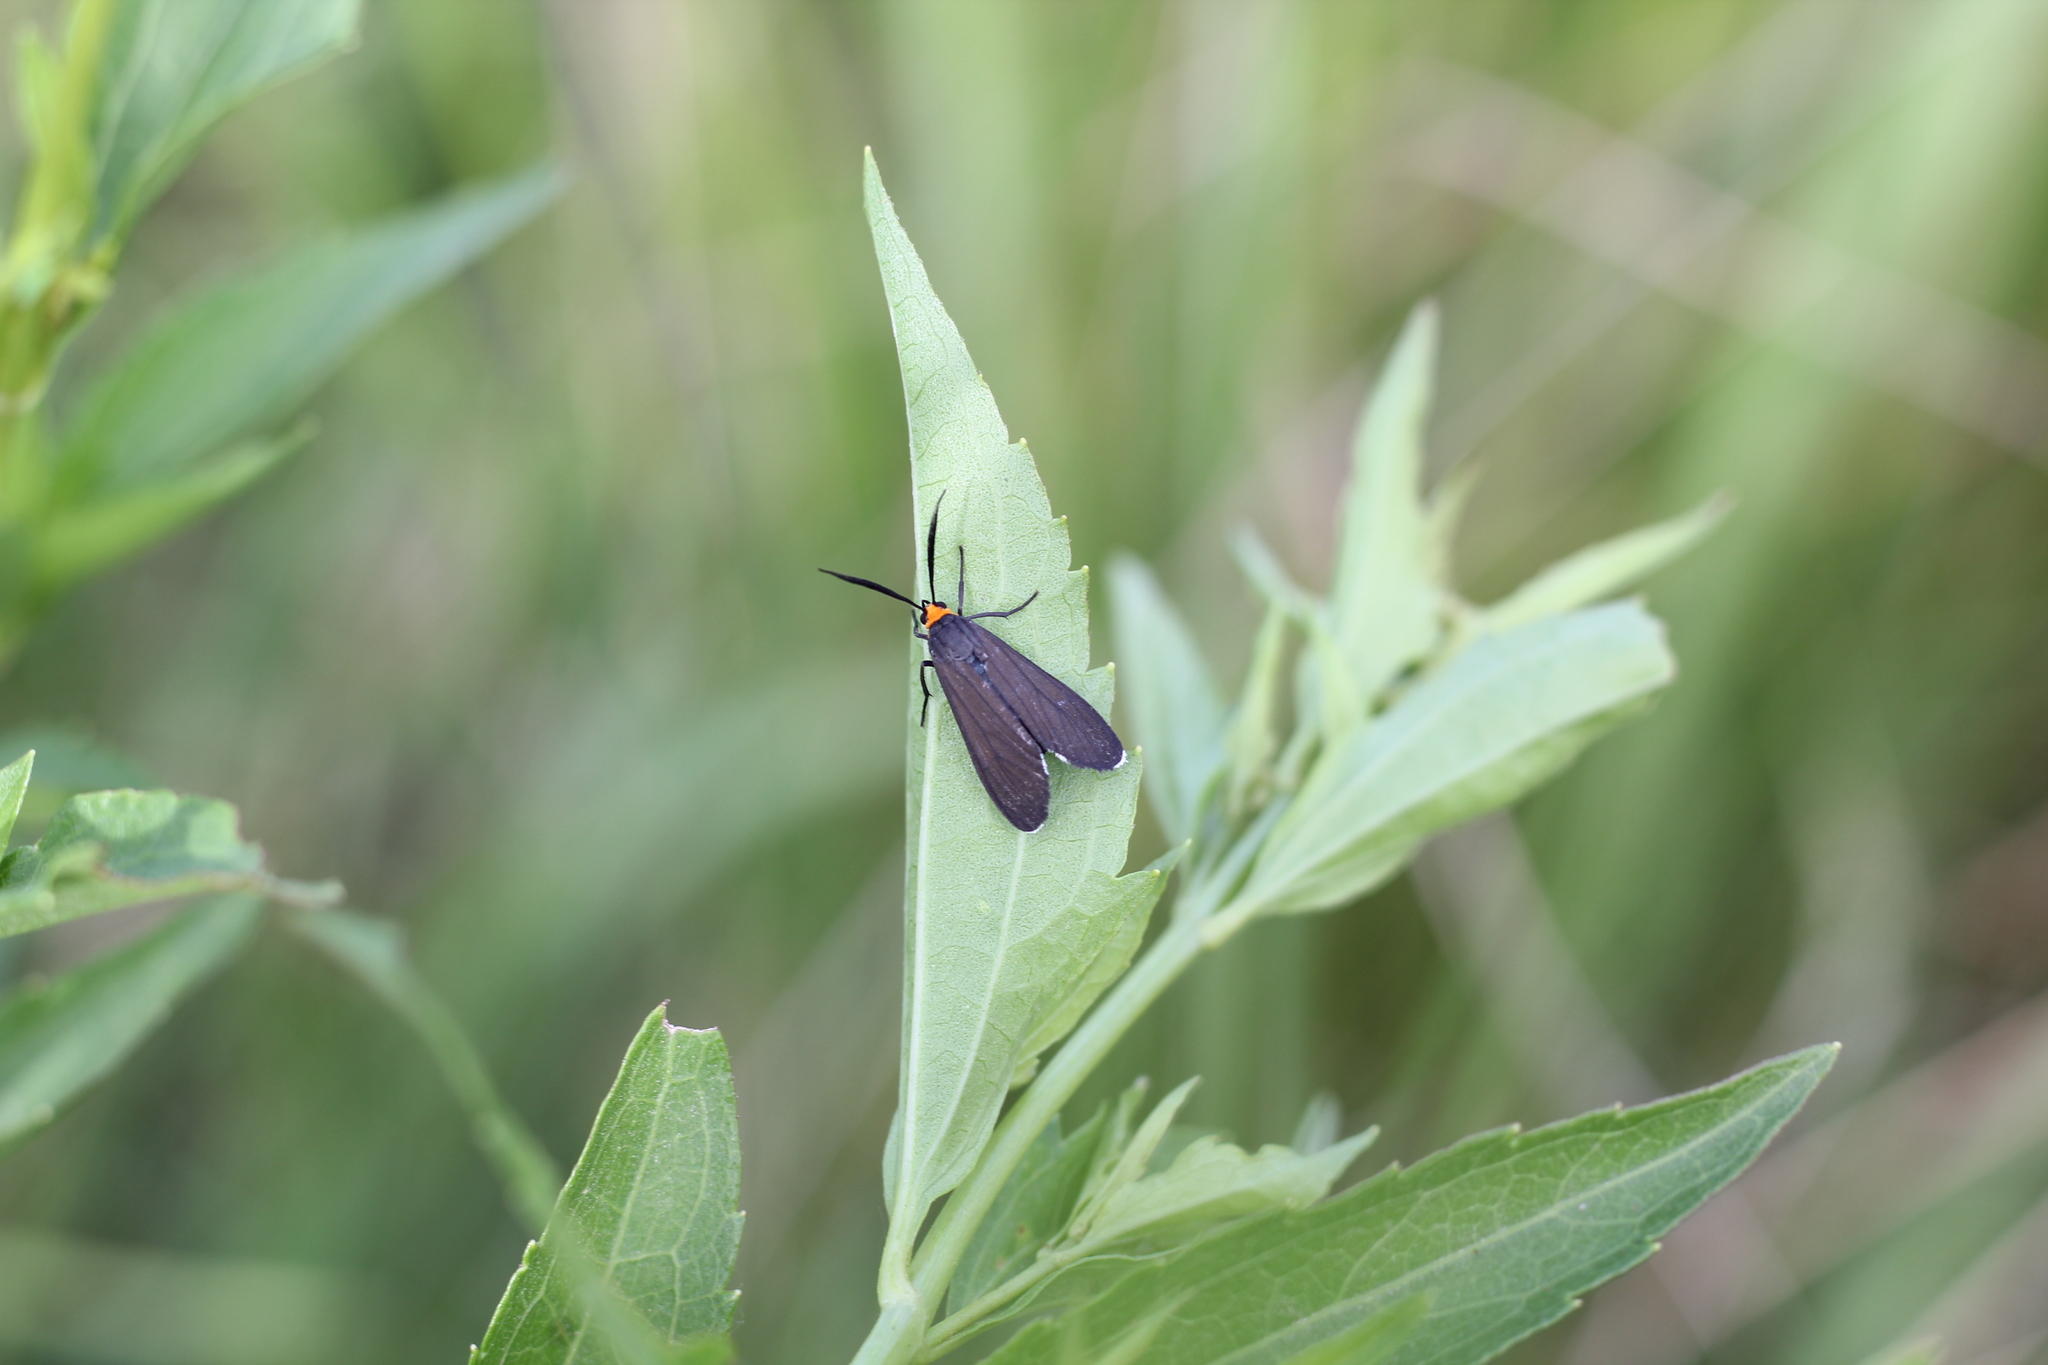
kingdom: Animalia
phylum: Arthropoda
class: Insecta
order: Lepidoptera
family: Erebidae
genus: Ctenucha
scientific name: Ctenucha rubriceps
